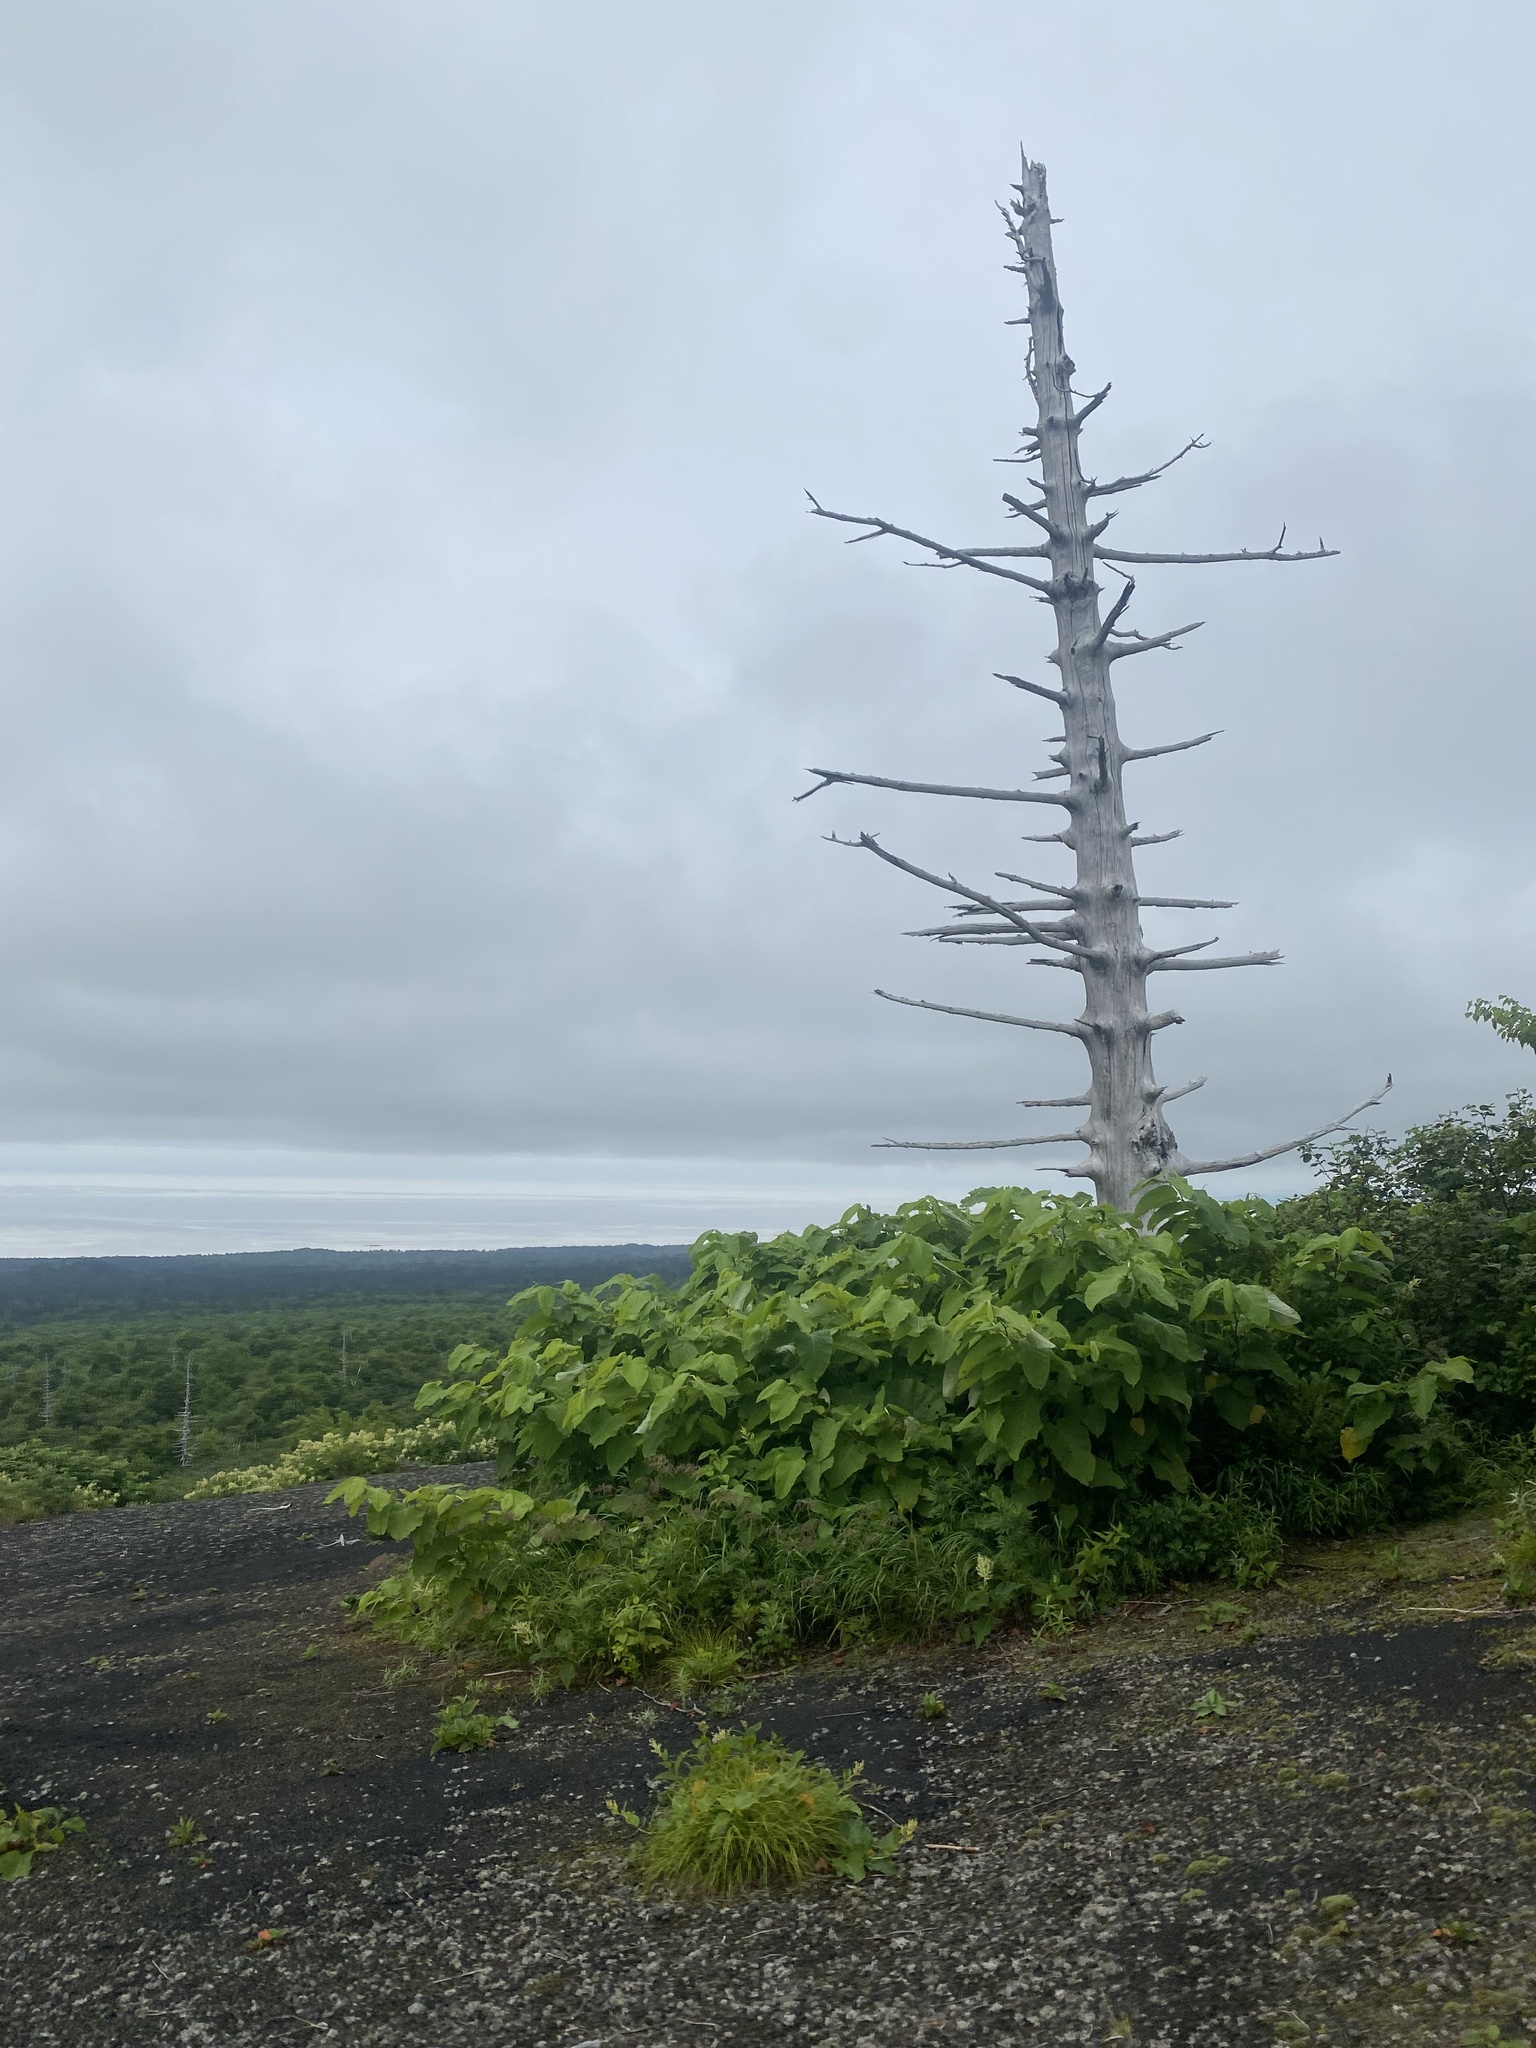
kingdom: Plantae
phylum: Tracheophyta
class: Magnoliopsida
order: Caryophyllales
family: Polygonaceae
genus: Reynoutria
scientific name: Reynoutria sachalinensis
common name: Giant knotweed
